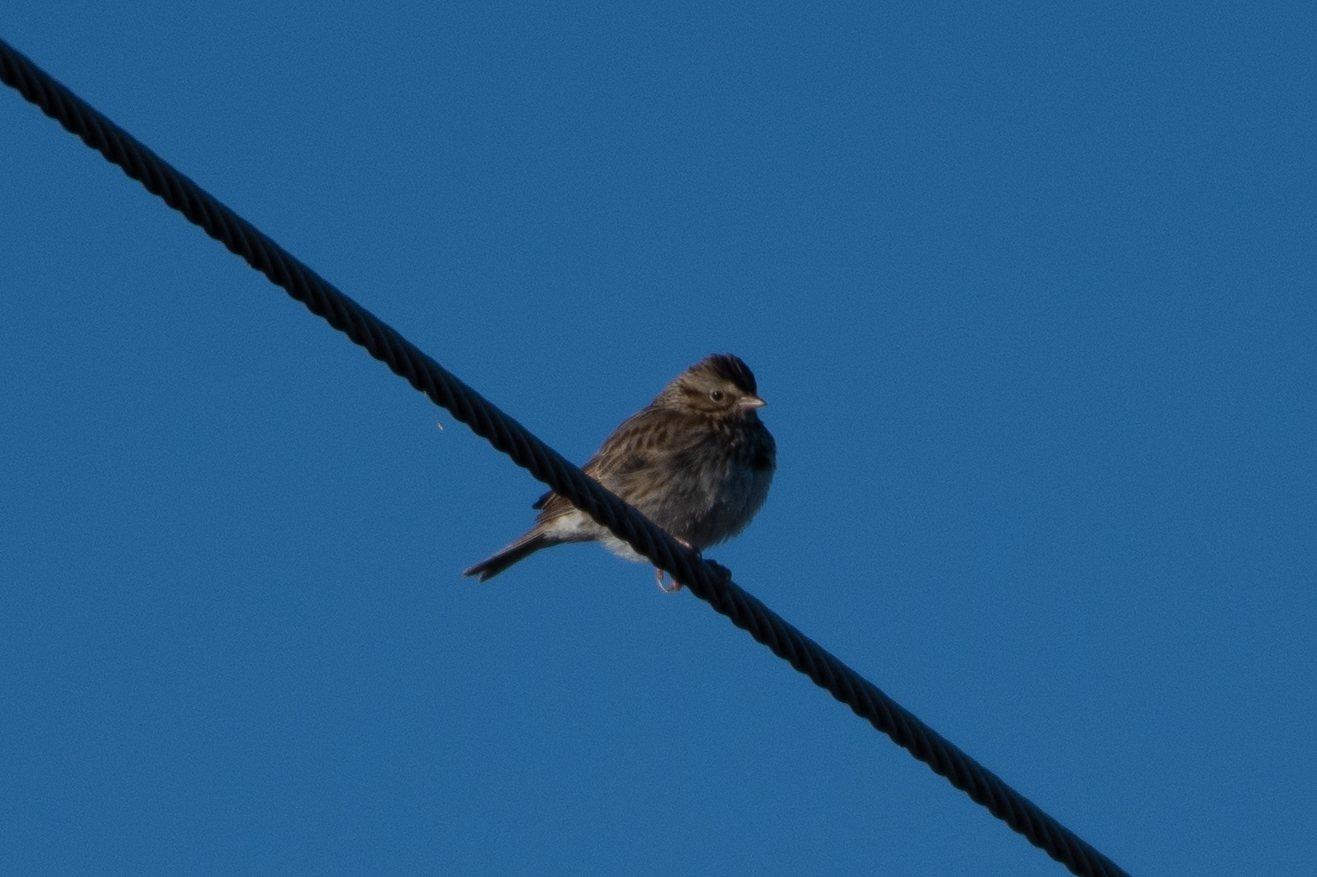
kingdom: Animalia
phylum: Chordata
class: Aves
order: Passeriformes
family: Passerellidae
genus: Passerculus
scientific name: Passerculus sandwichensis
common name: Savannah sparrow
